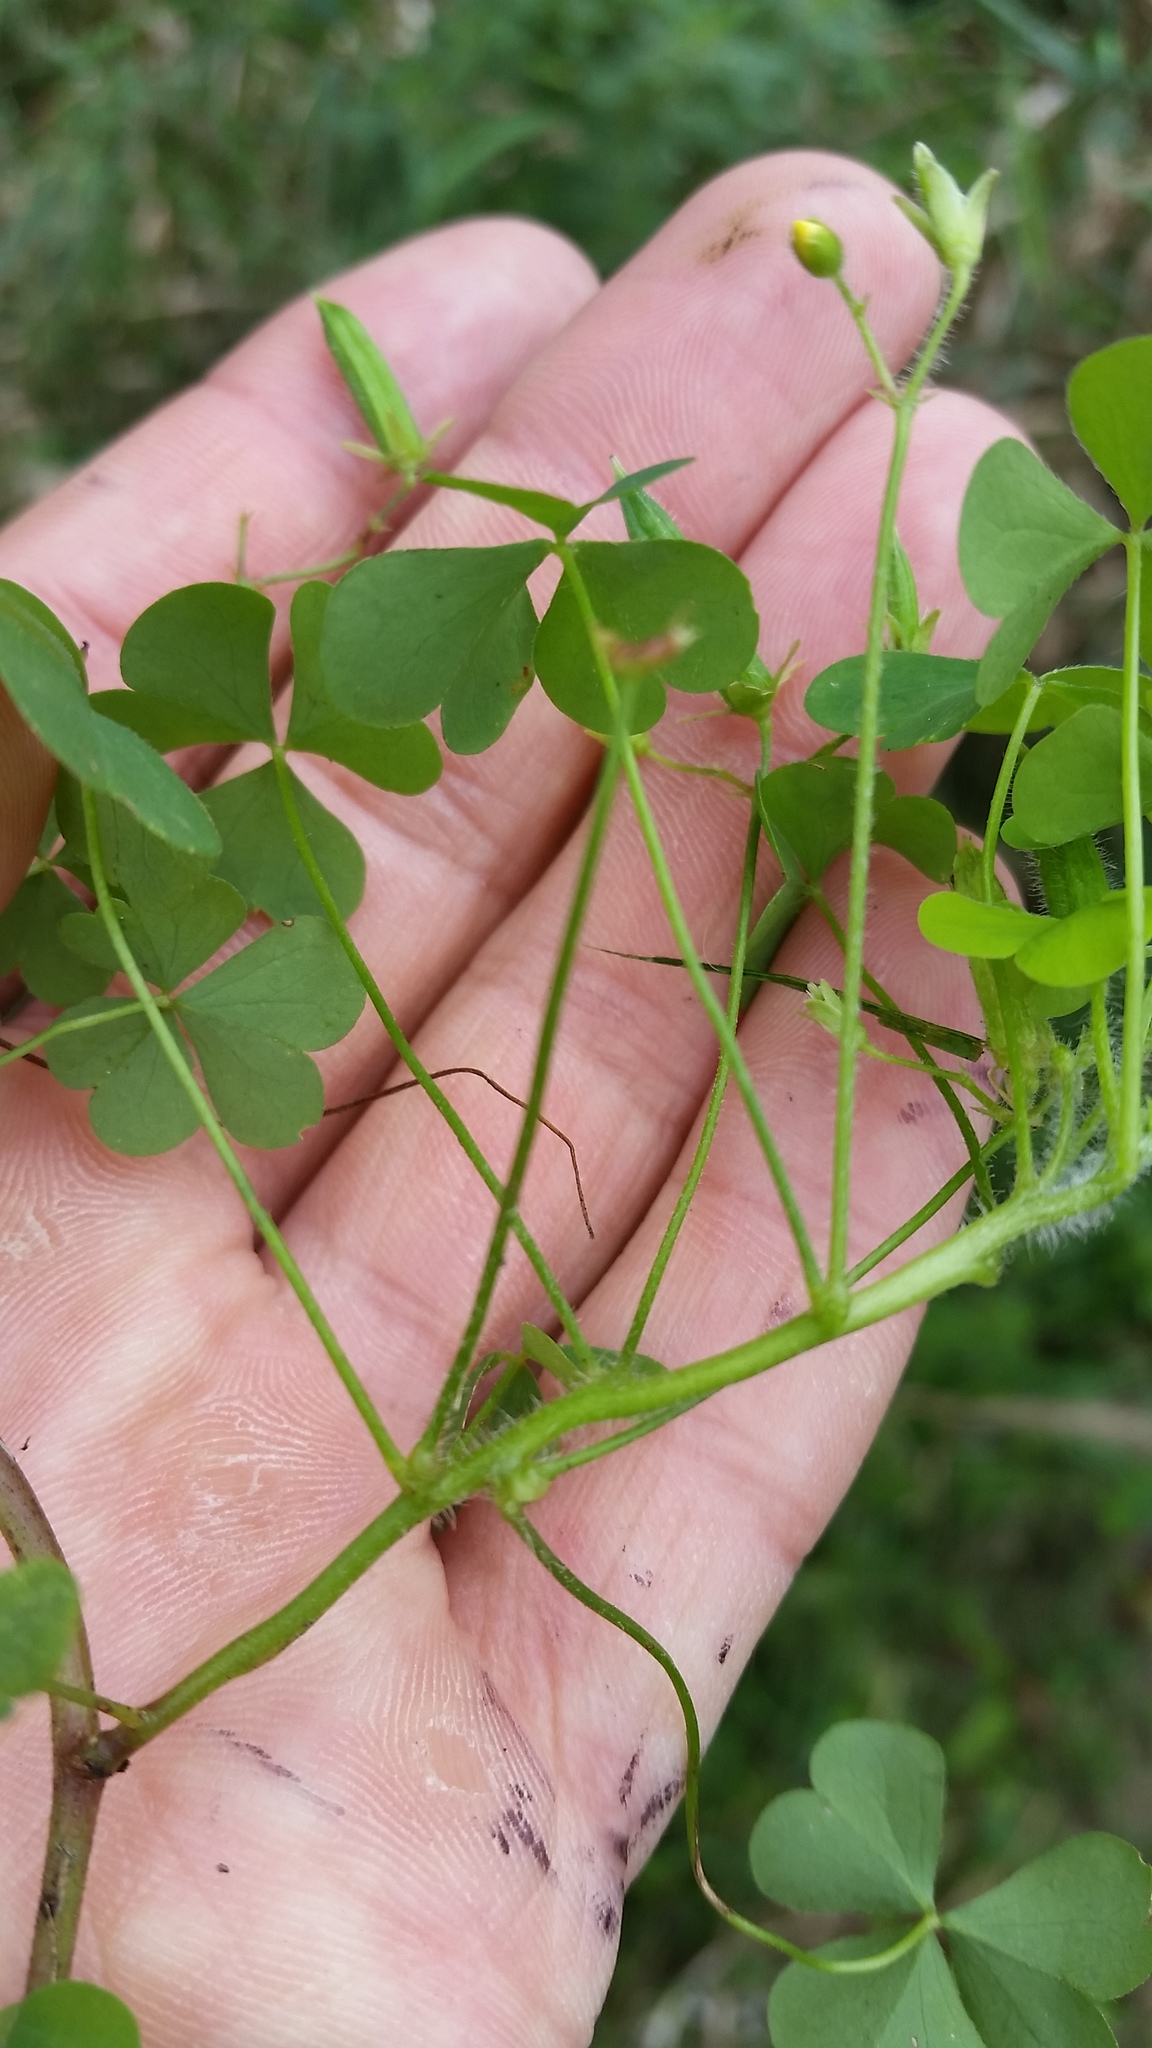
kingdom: Plantae
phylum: Tracheophyta
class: Magnoliopsida
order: Oxalidales
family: Oxalidaceae
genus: Oxalis
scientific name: Oxalis stricta
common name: Upright yellow-sorrel
